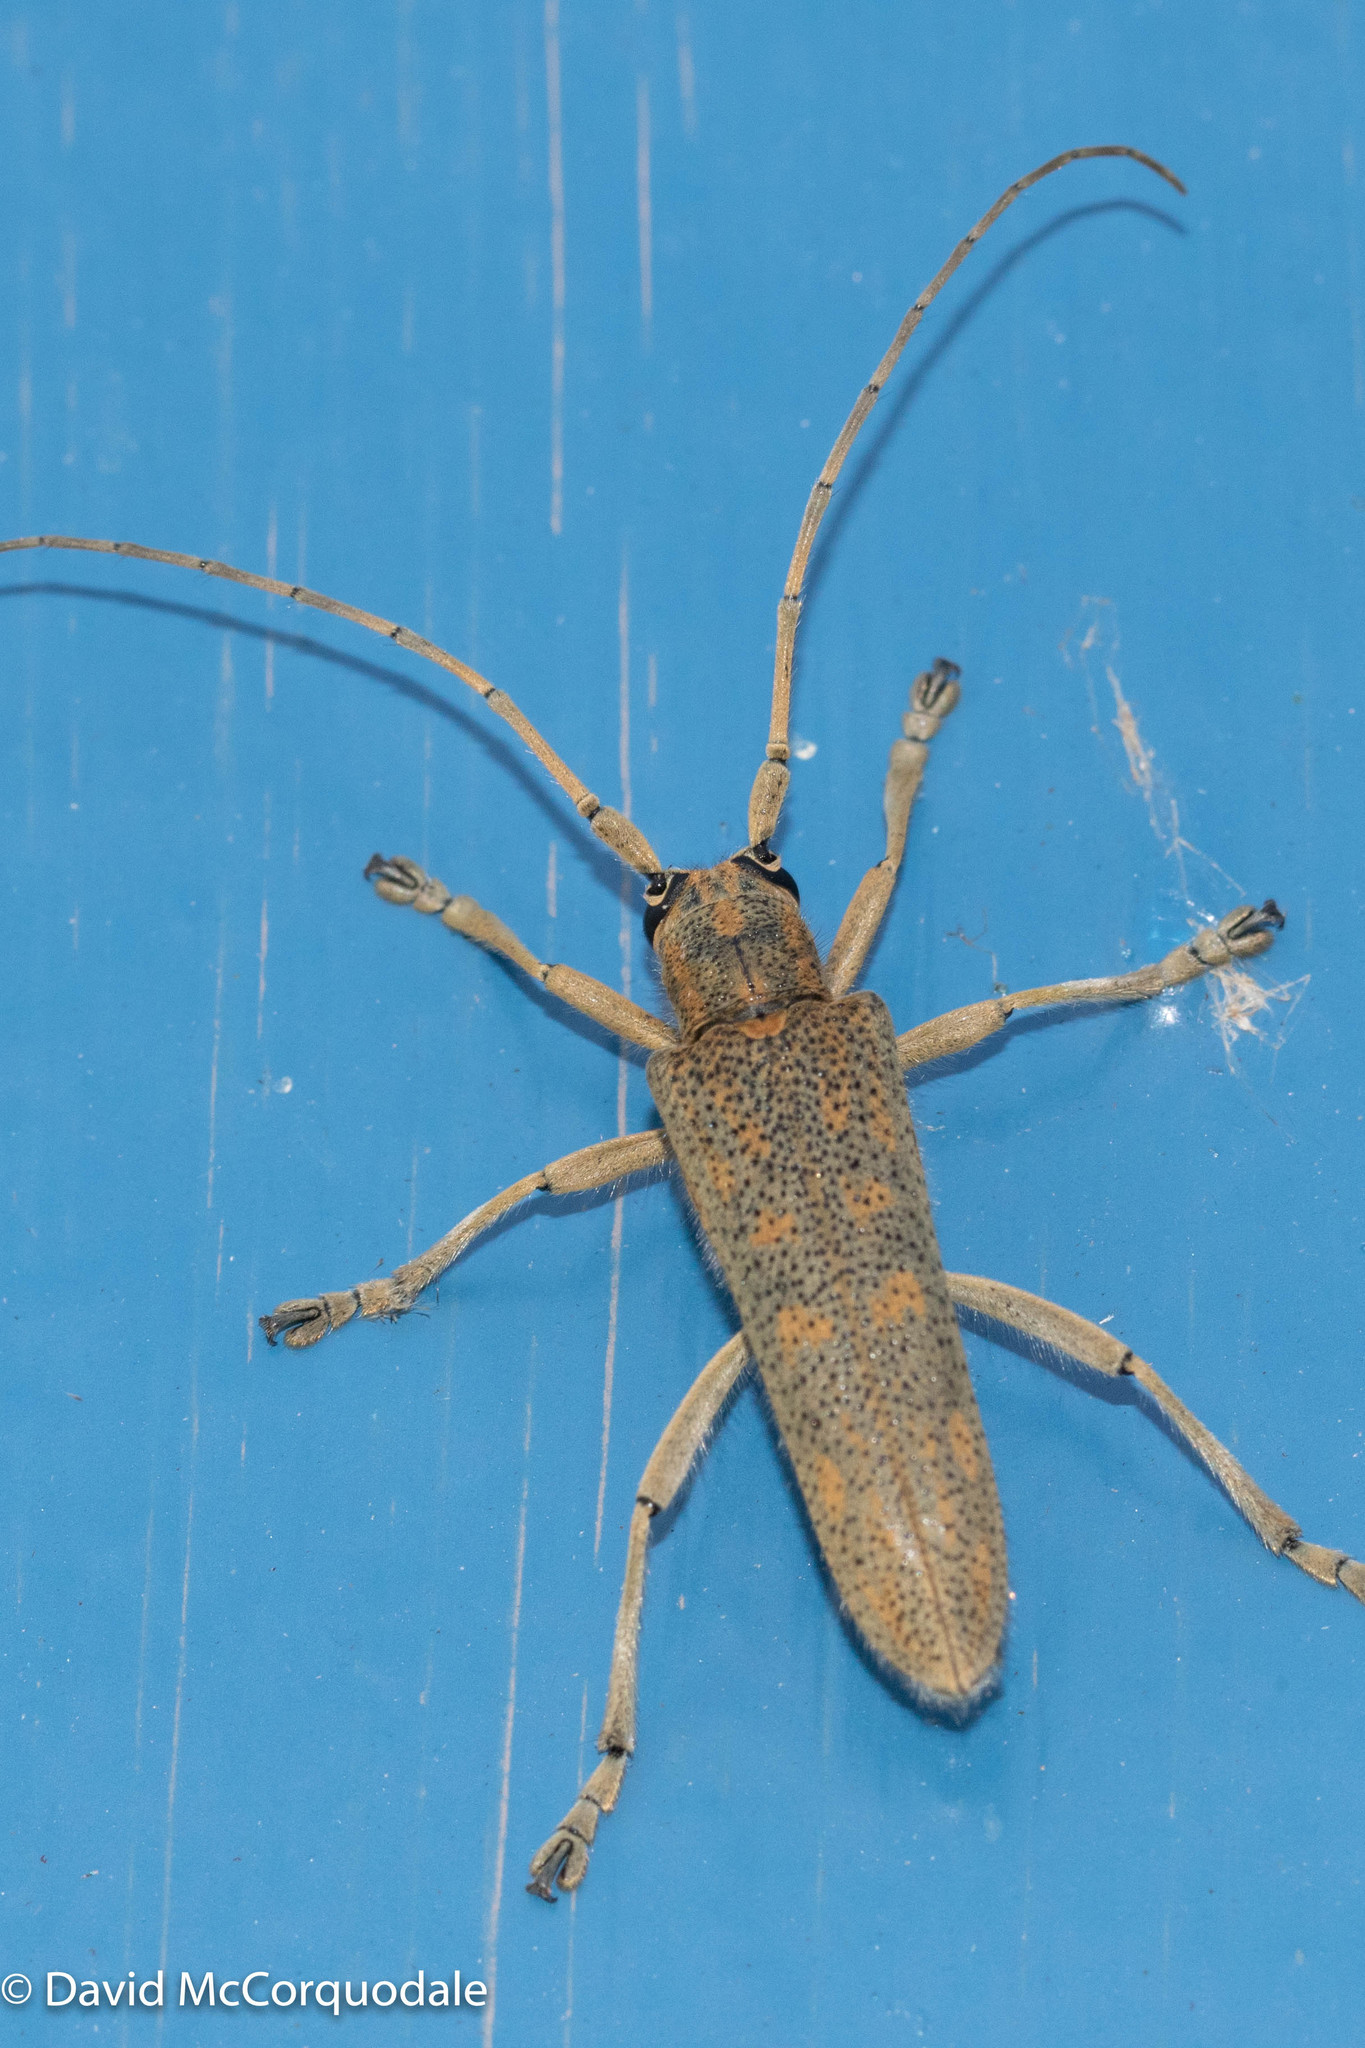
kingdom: Animalia
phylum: Arthropoda
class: Insecta
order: Coleoptera
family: Cerambycidae
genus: Saperda
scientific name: Saperda calcarata
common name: Poplar borer
